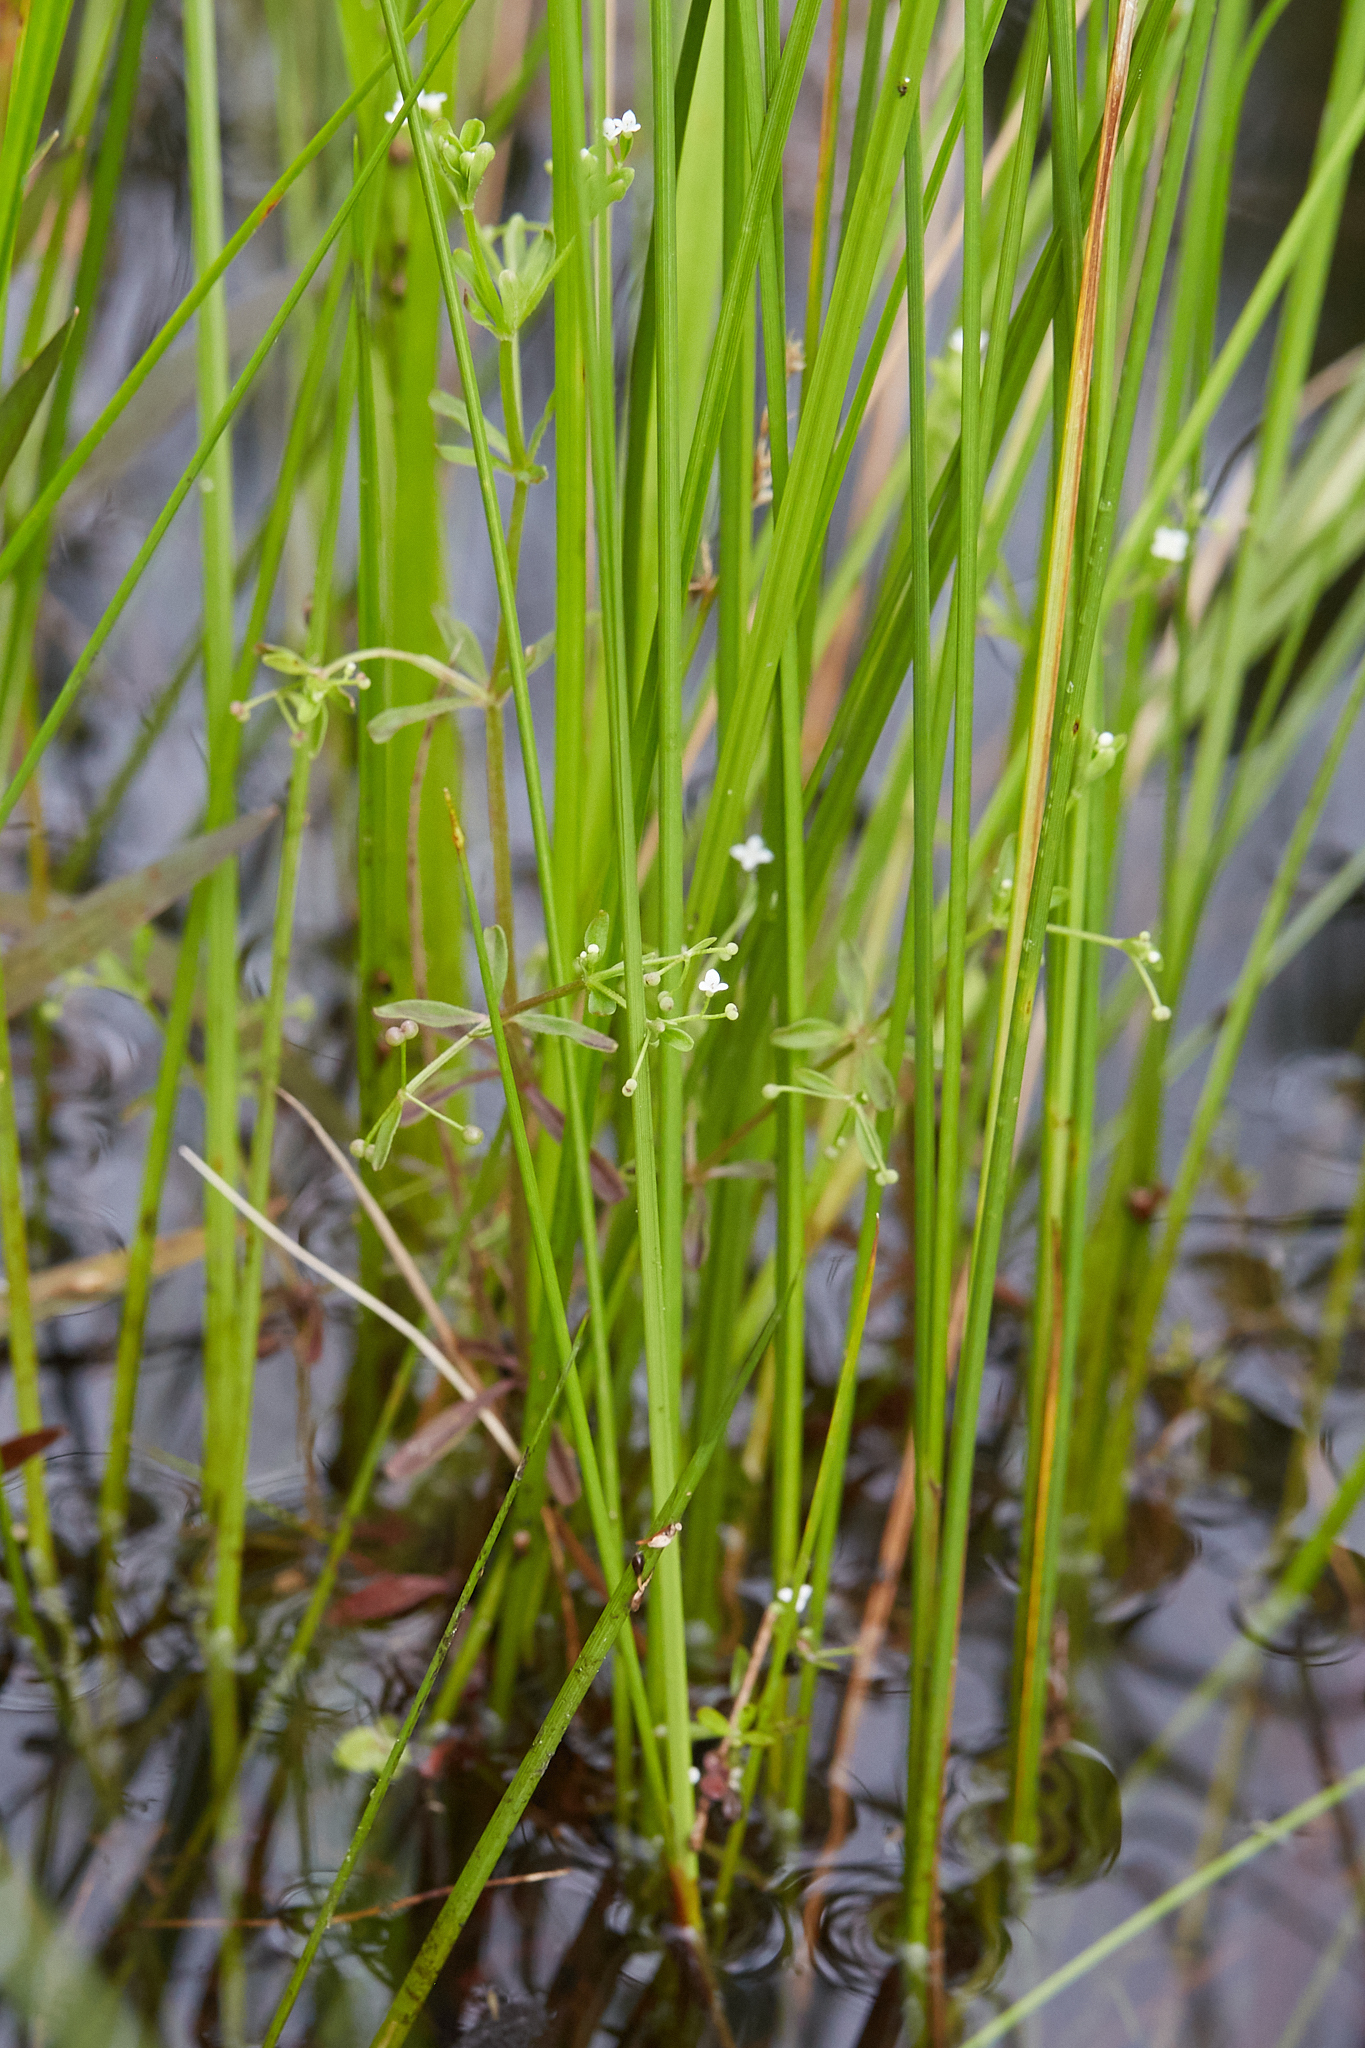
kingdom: Plantae
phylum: Tracheophyta
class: Magnoliopsida
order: Gentianales
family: Rubiaceae
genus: Galium
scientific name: Galium trifidum
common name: Small bedstraw
